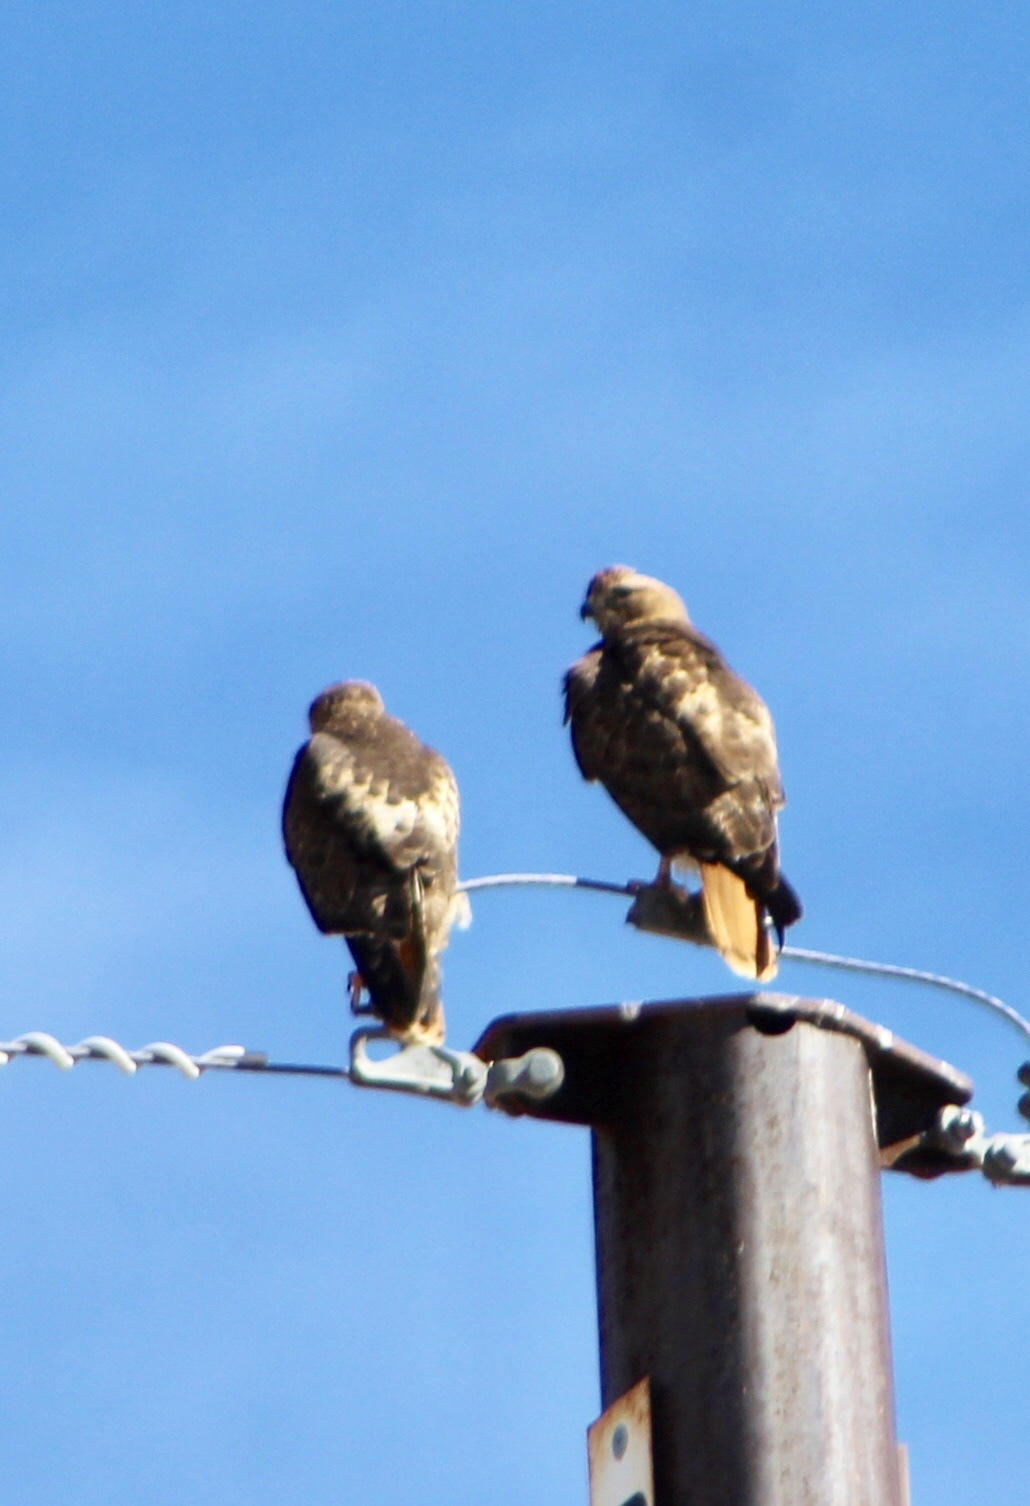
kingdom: Animalia
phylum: Chordata
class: Aves
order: Accipitriformes
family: Accipitridae
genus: Buteo
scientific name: Buteo jamaicensis
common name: Red-tailed hawk
